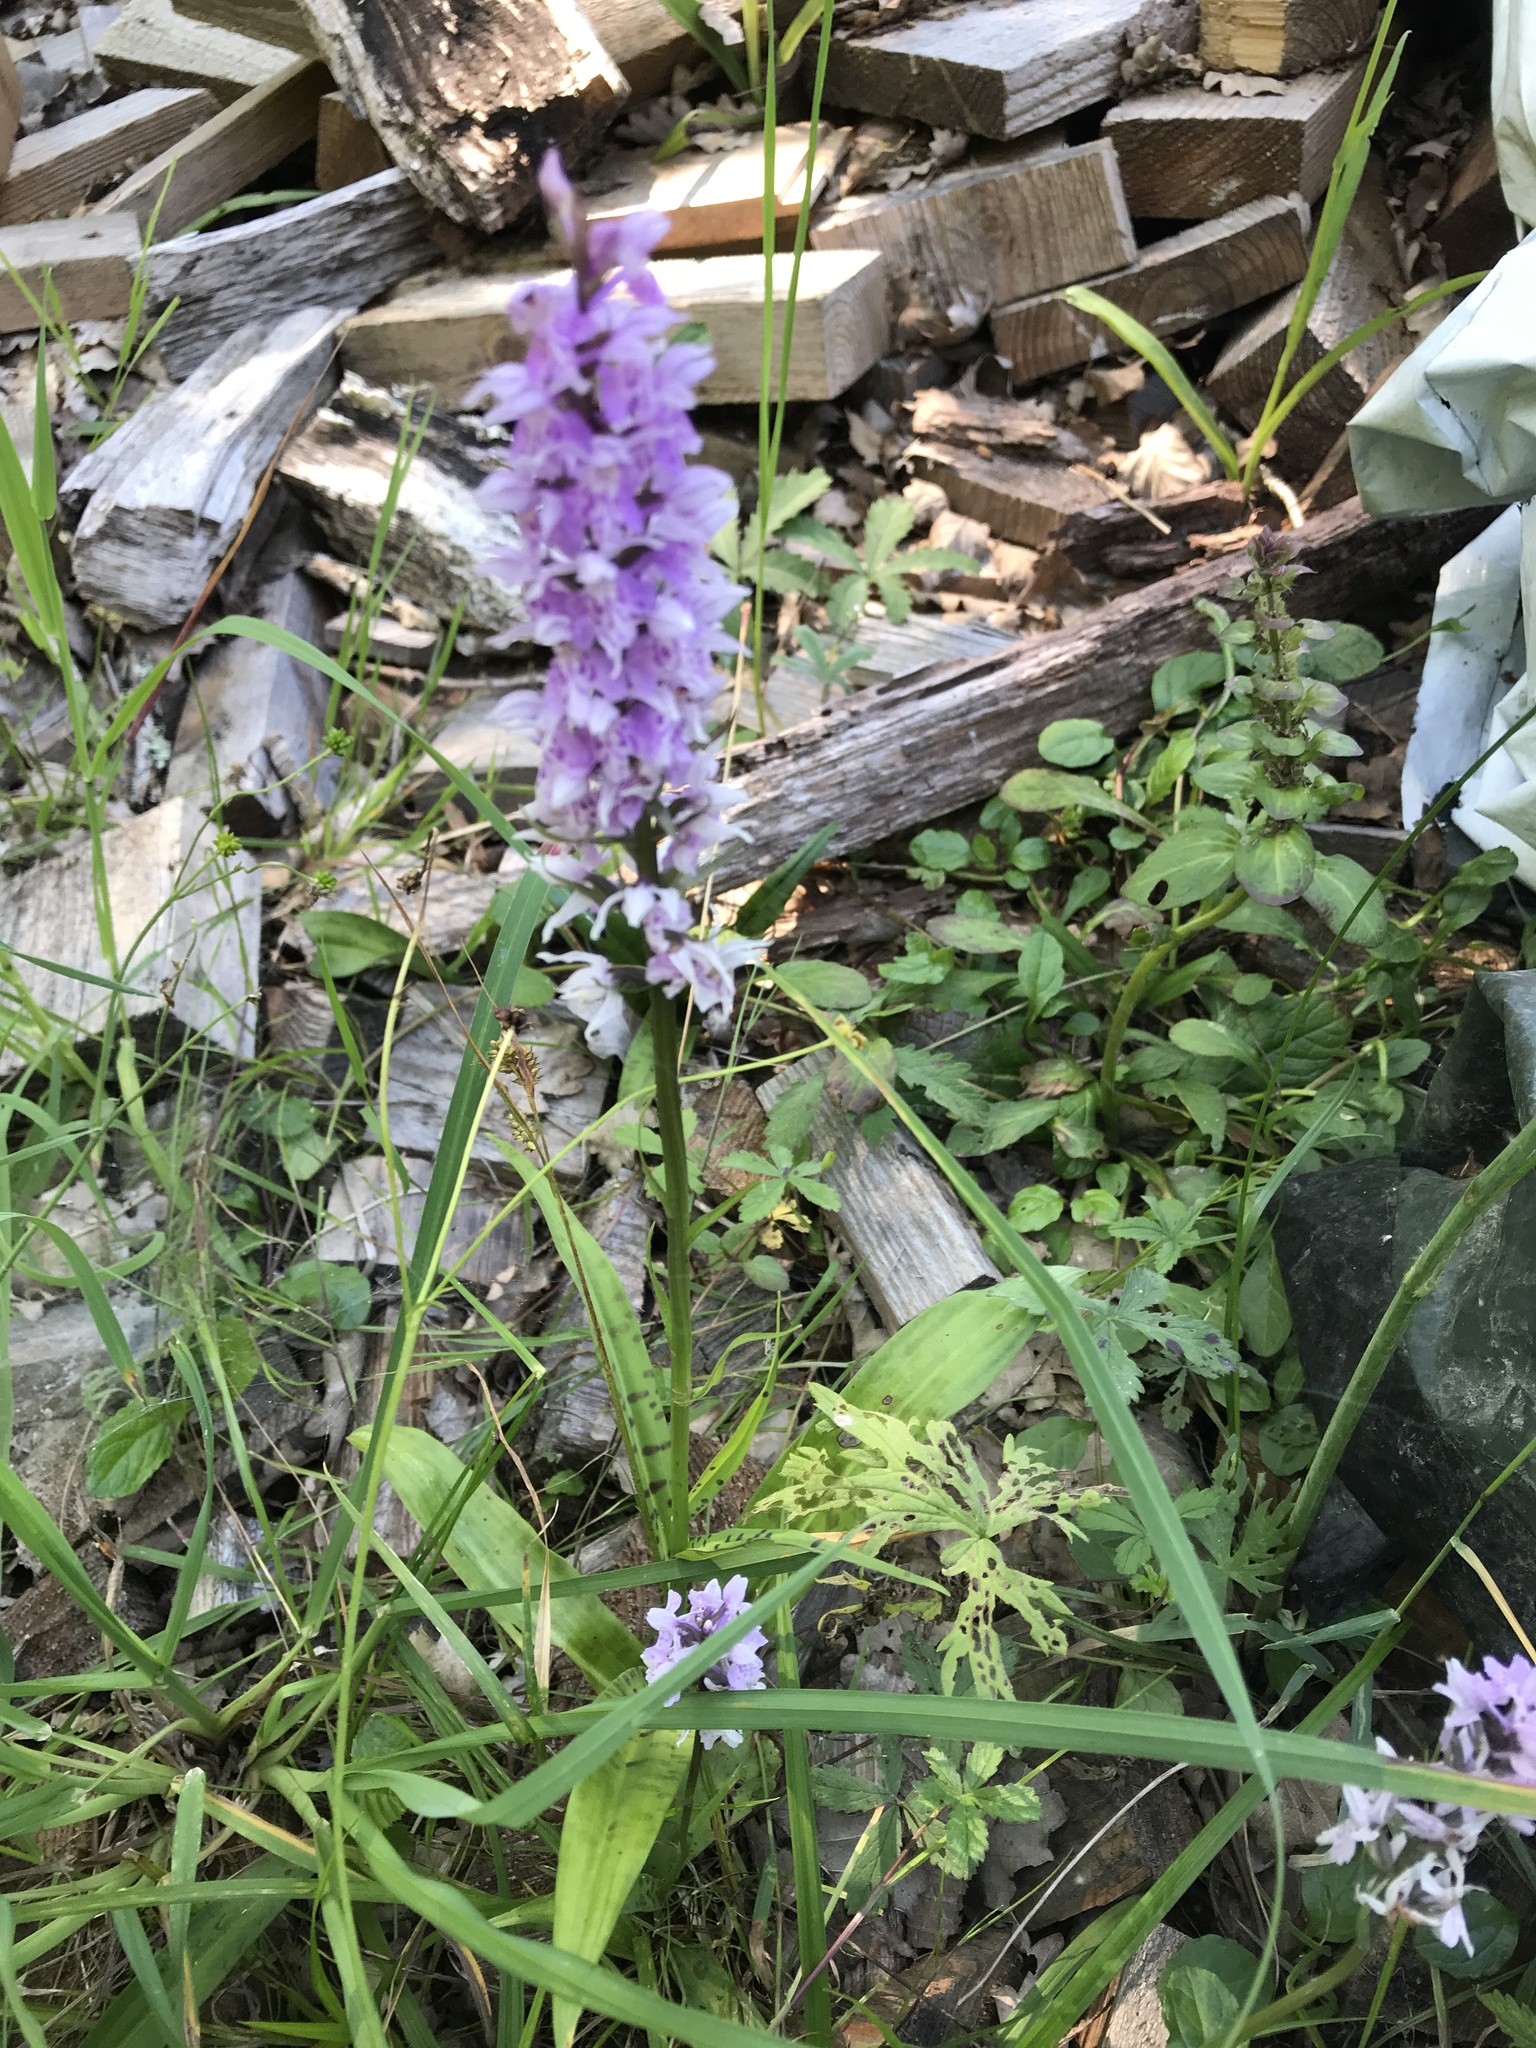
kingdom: Plantae
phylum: Tracheophyta
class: Liliopsida
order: Asparagales
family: Orchidaceae
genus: Dactylorhiza
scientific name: Dactylorhiza maculata
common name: Heath spotted-orchid
